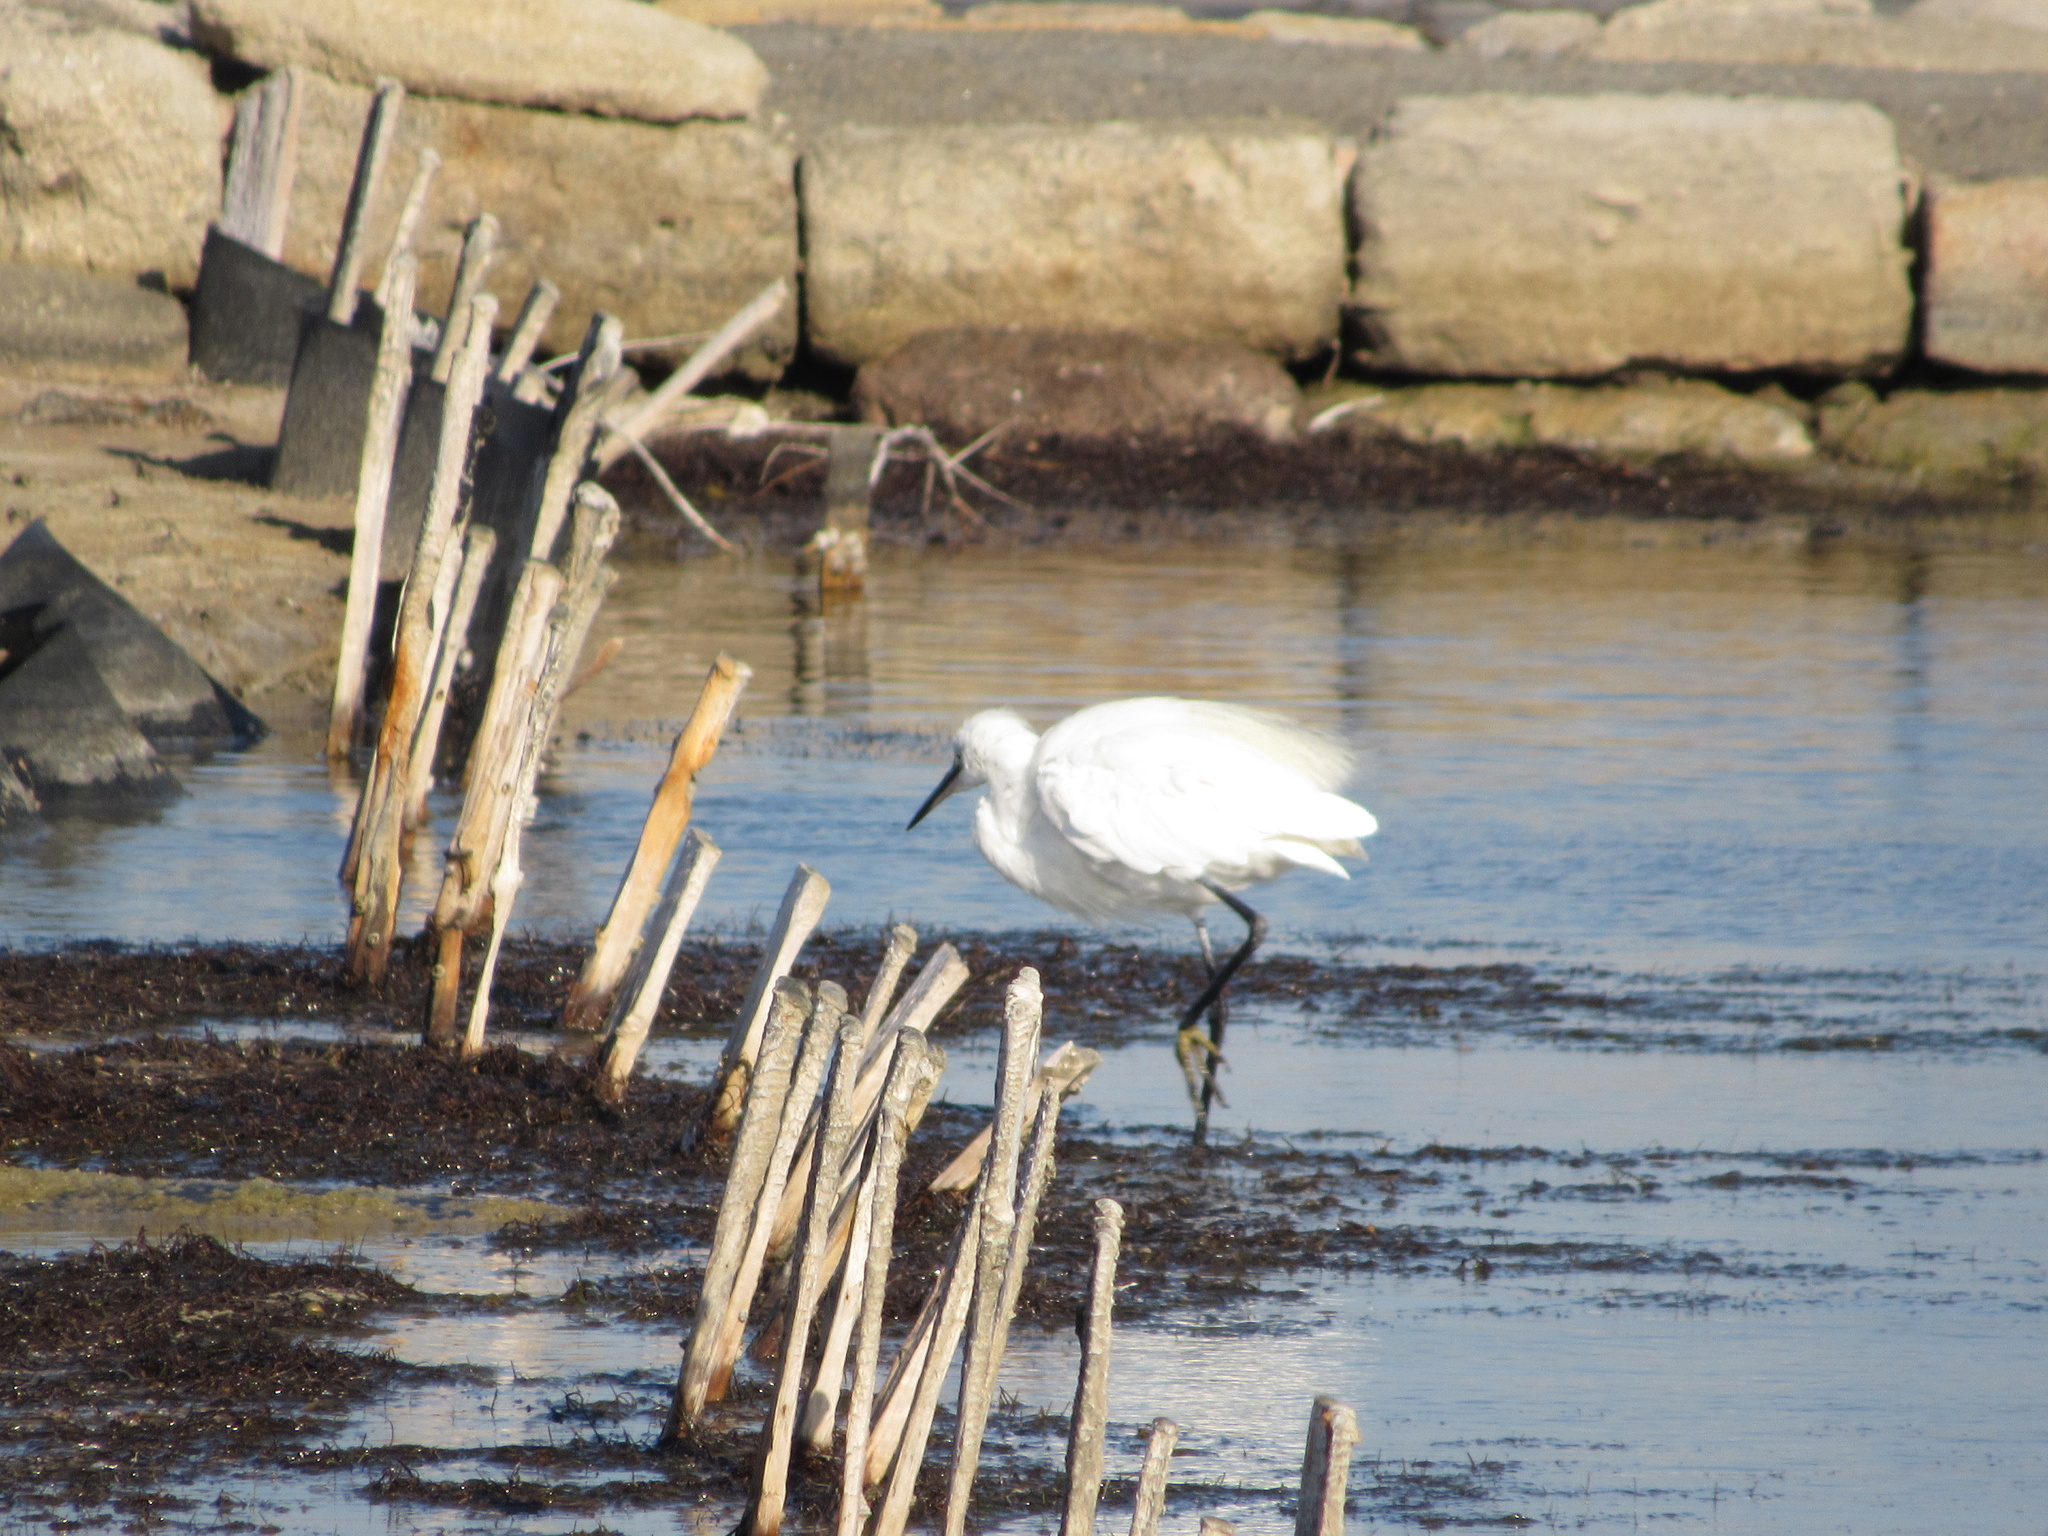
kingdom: Animalia
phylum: Chordata
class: Aves
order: Pelecaniformes
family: Ardeidae
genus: Egretta
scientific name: Egretta garzetta
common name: Little egret
